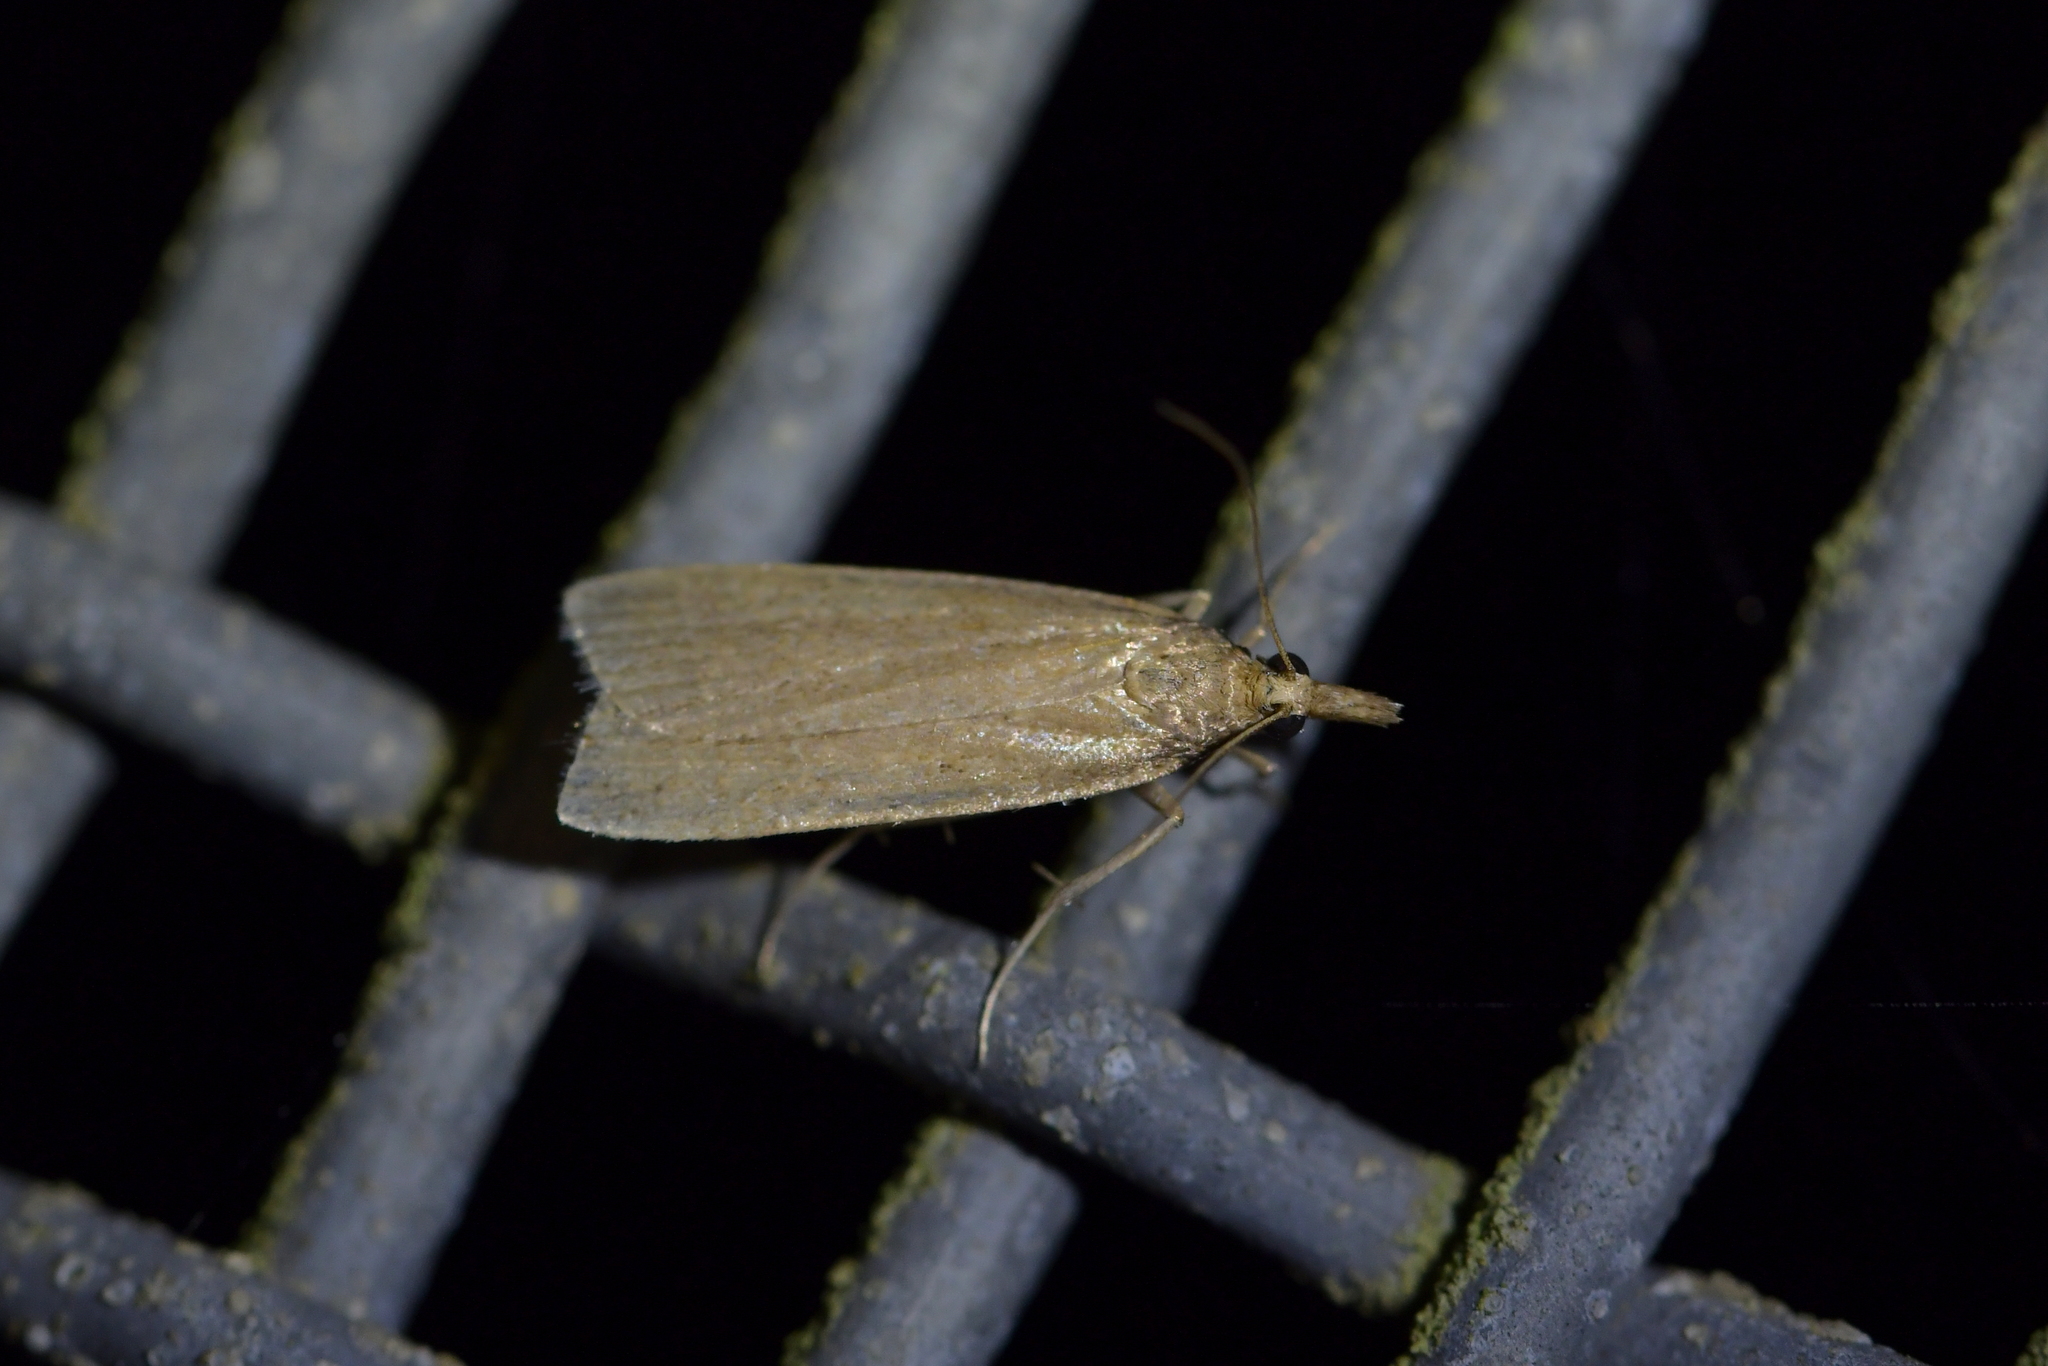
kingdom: Animalia
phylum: Arthropoda
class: Insecta
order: Lepidoptera
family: Crambidae
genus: Eudonia
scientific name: Eudonia sabulosella
